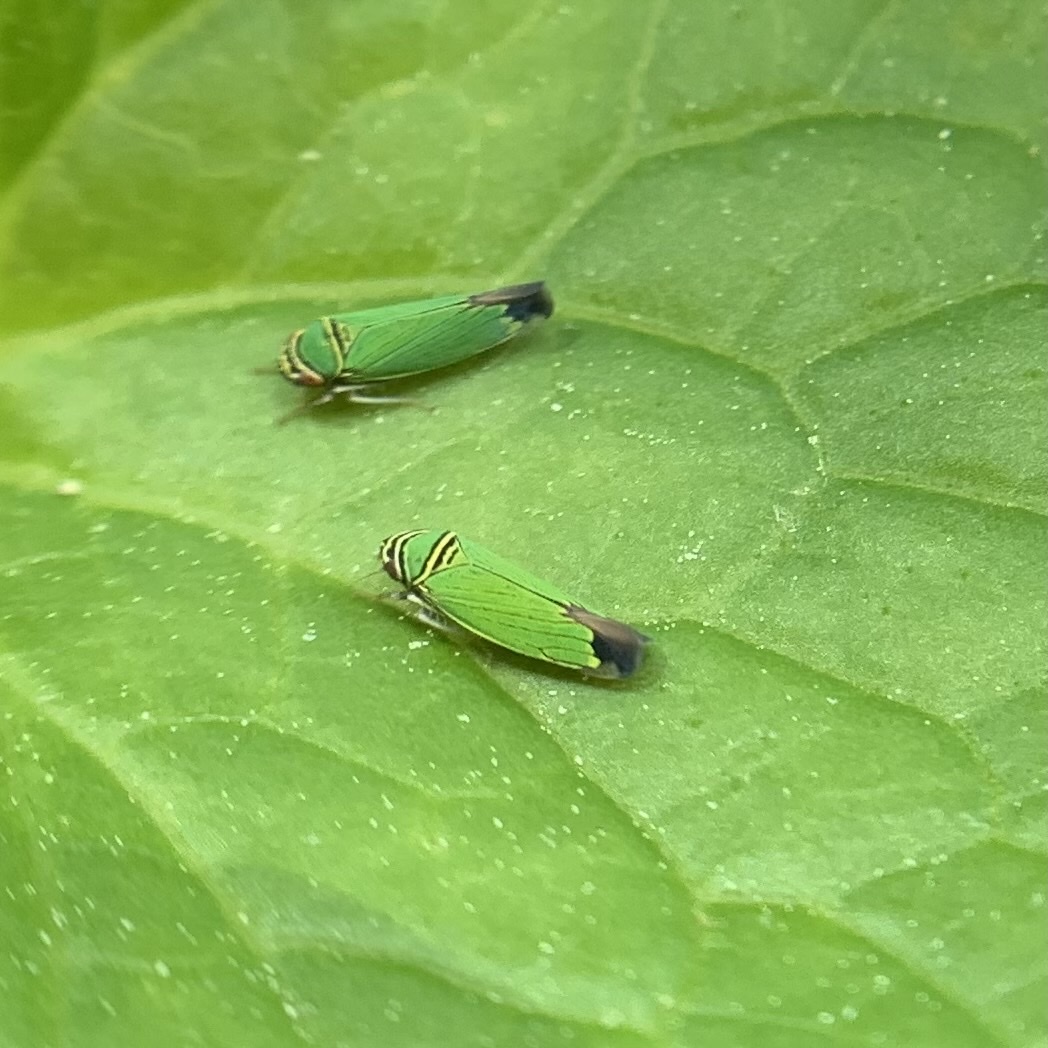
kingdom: Animalia
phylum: Arthropoda
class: Insecta
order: Hemiptera
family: Cicadellidae
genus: Tylozygus
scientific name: Tylozygus geometricus
